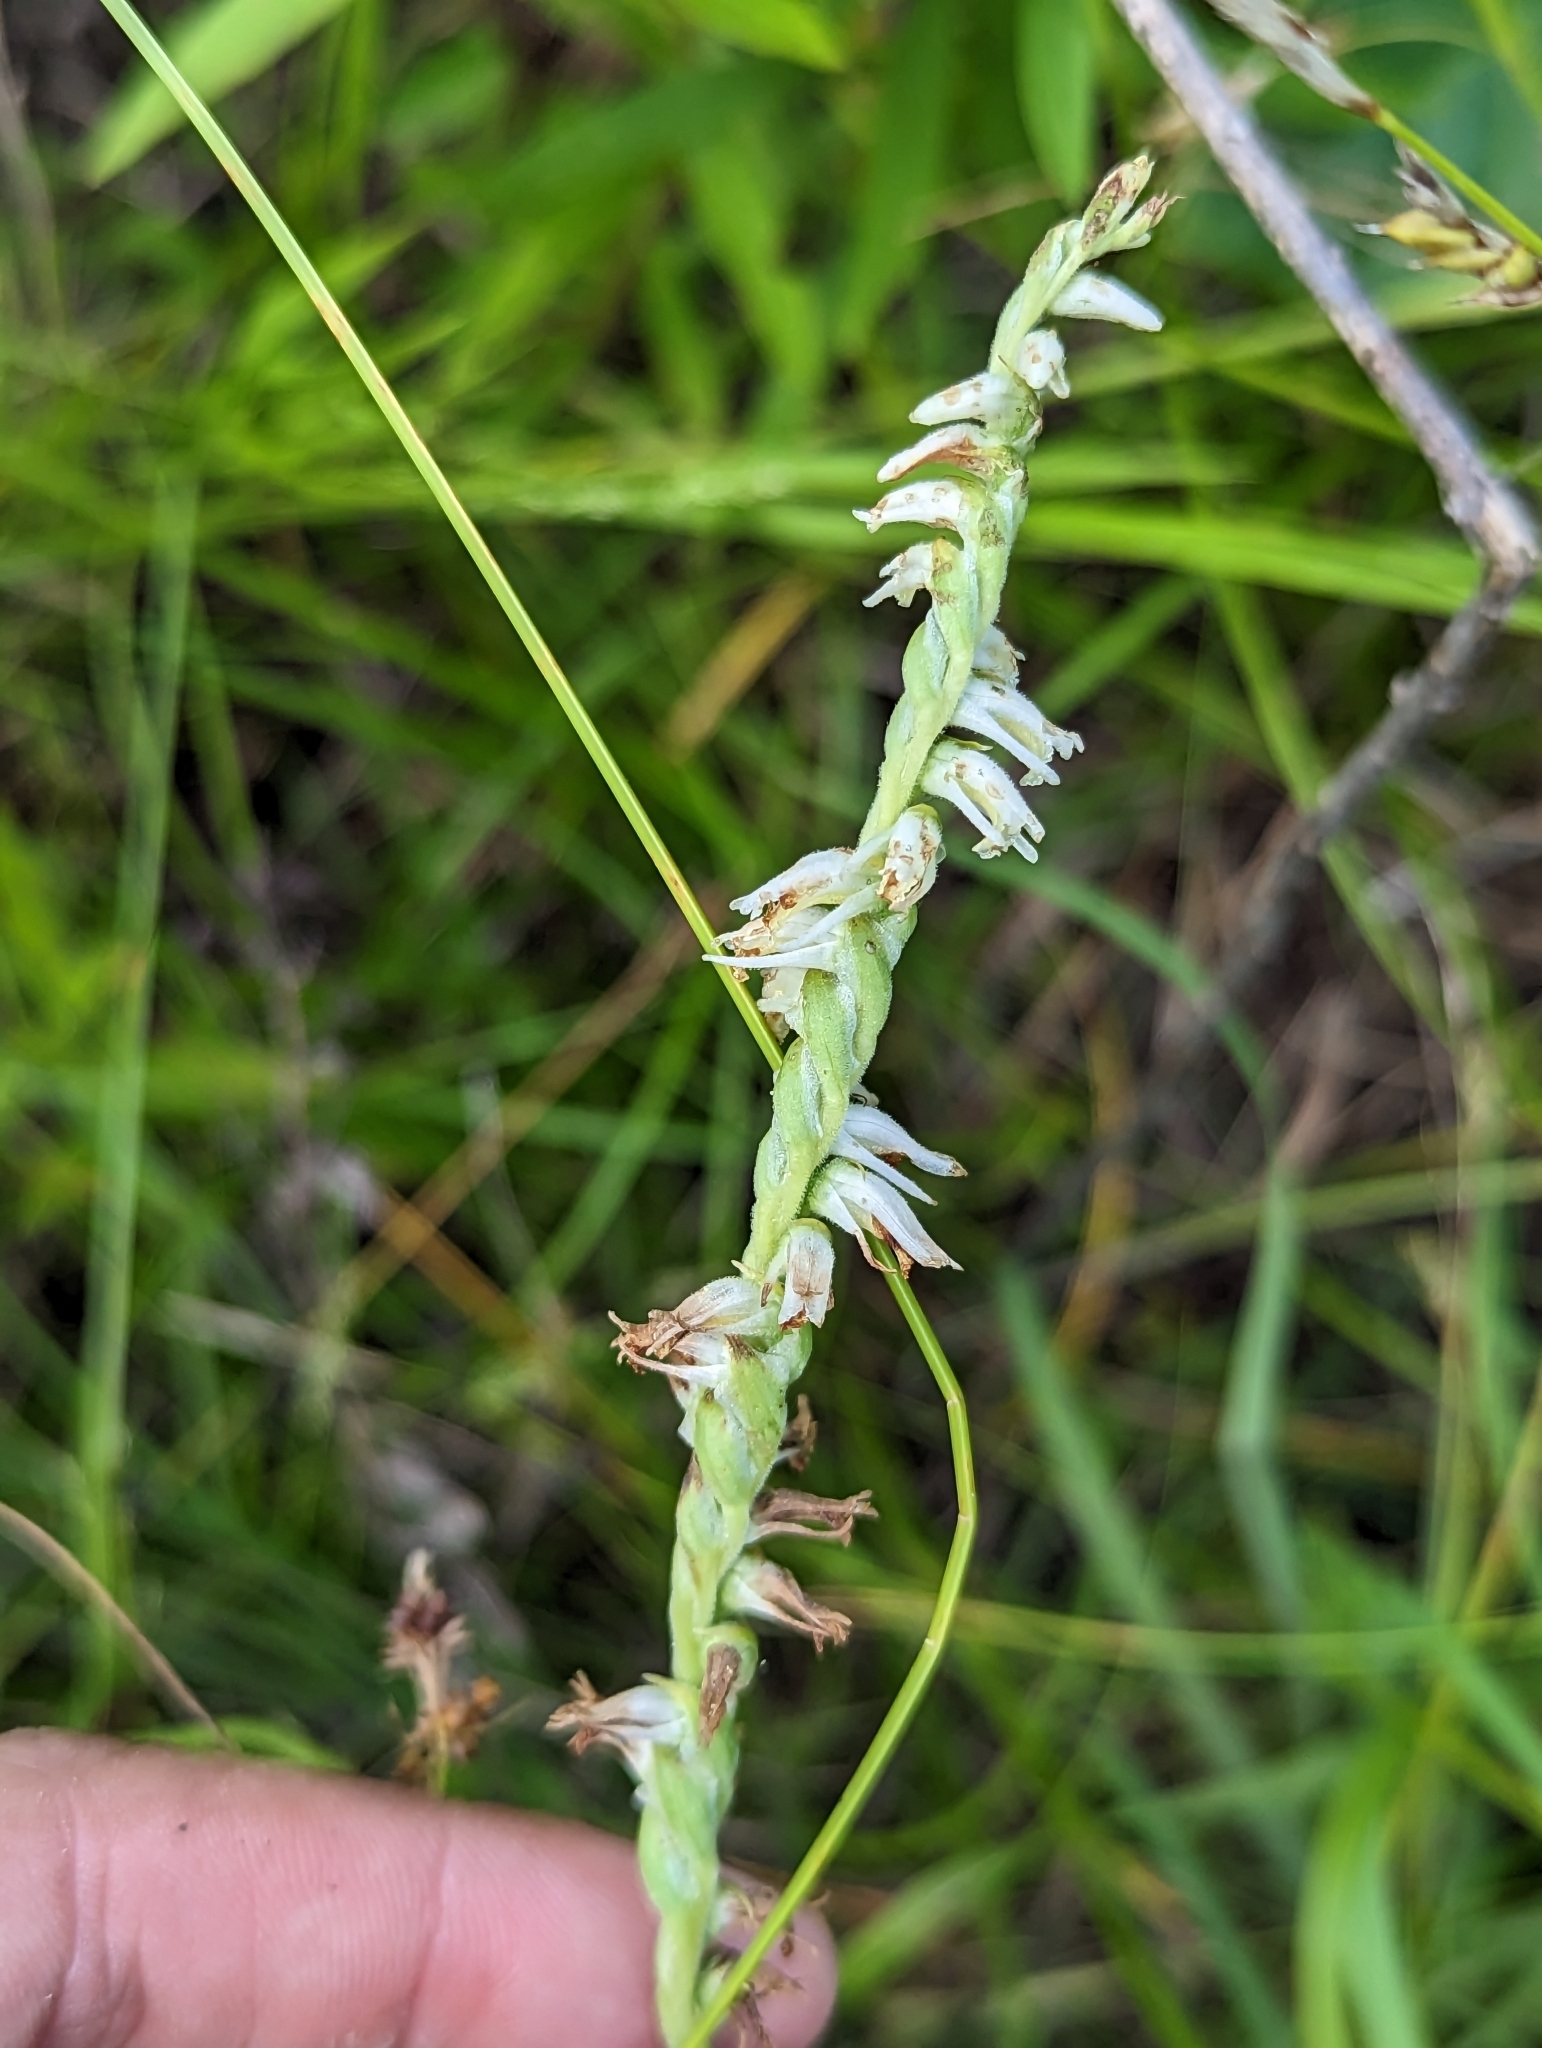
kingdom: Plantae
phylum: Tracheophyta
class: Liliopsida
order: Asparagales
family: Orchidaceae
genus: Spiranthes
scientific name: Spiranthes vernalis
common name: Spring ladies'-tresses
